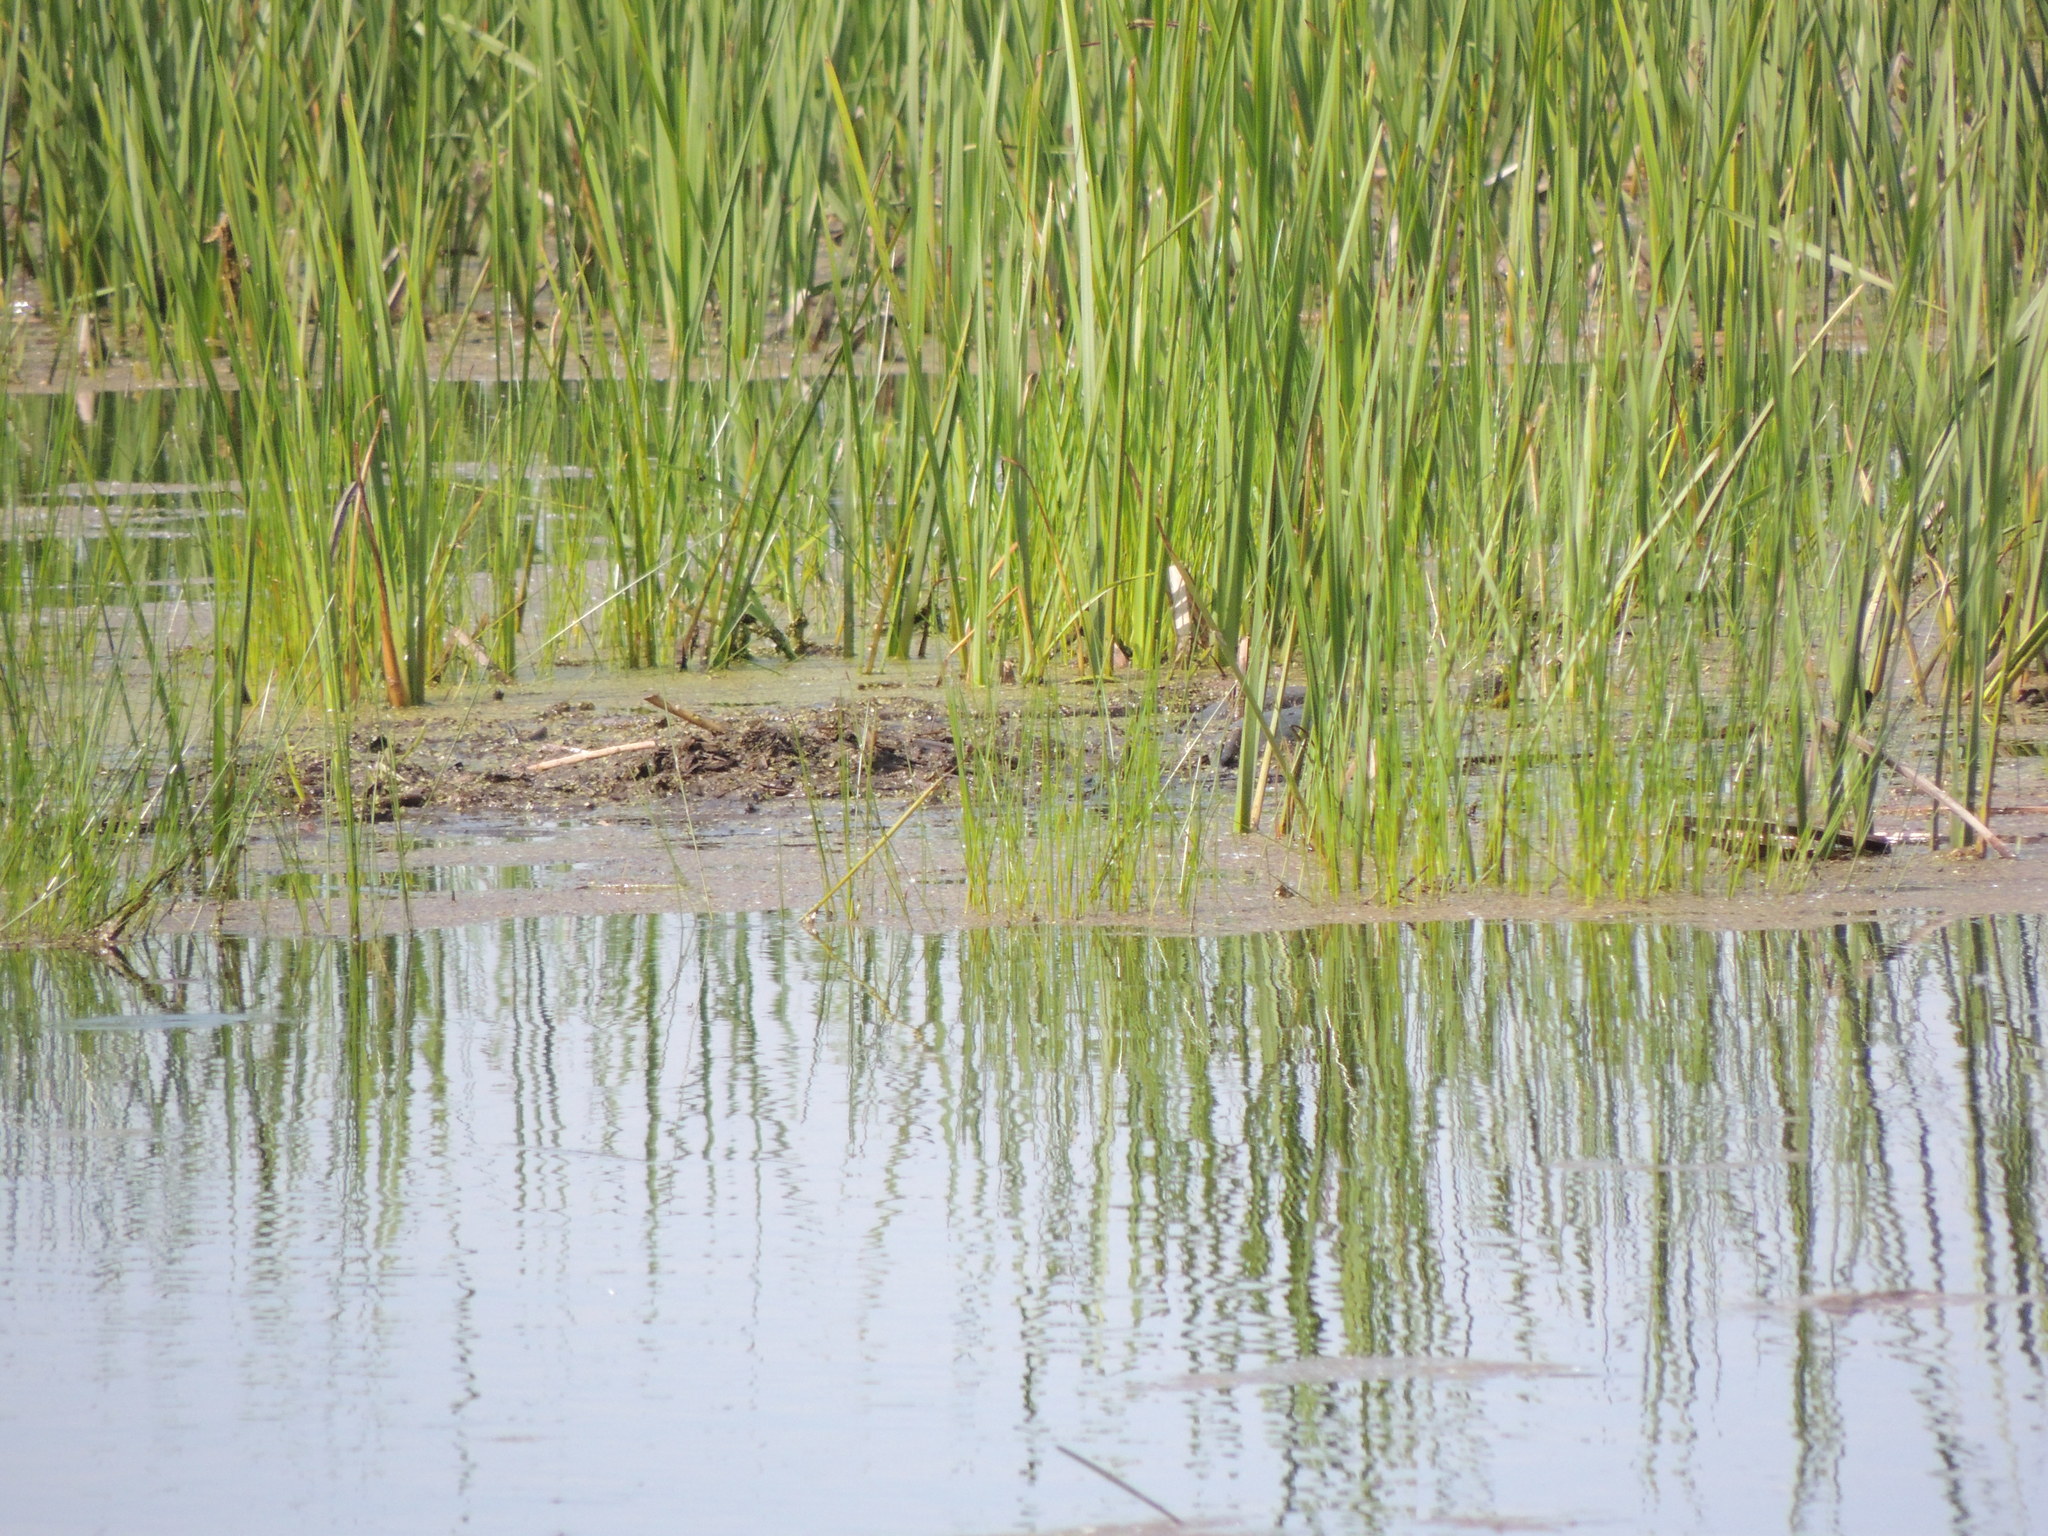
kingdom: Animalia
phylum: Chordata
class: Testudines
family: Emydidae
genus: Emys
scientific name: Emys blandingii
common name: Blanding's turtle
